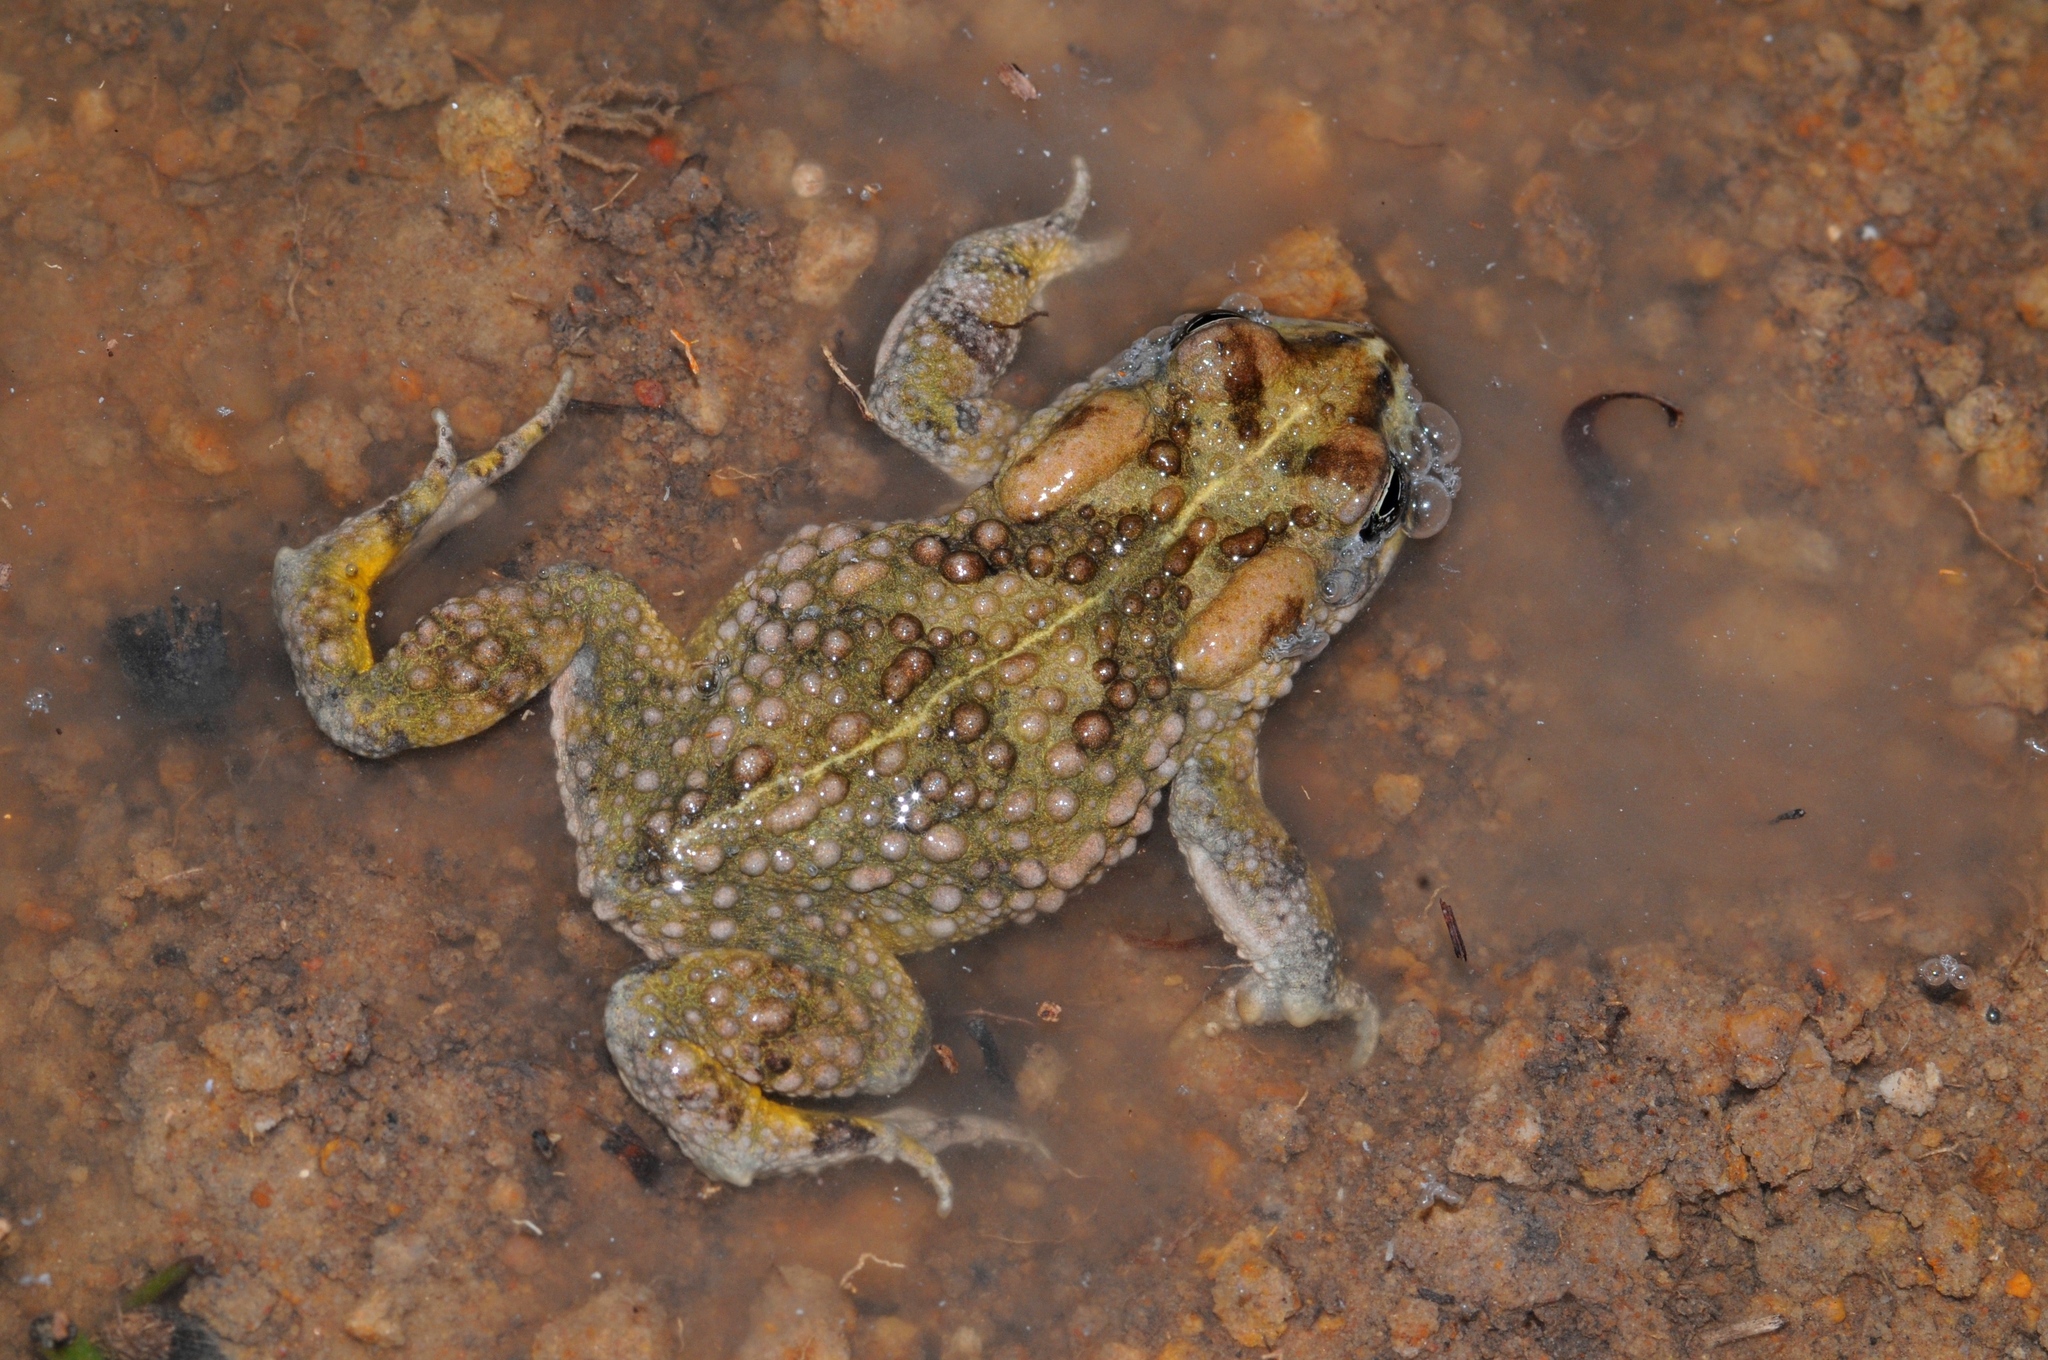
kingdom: Animalia
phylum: Chordata
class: Amphibia
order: Anura
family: Bufonidae
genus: Vandijkophrynus
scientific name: Vandijkophrynus angusticeps
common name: Sand toad
